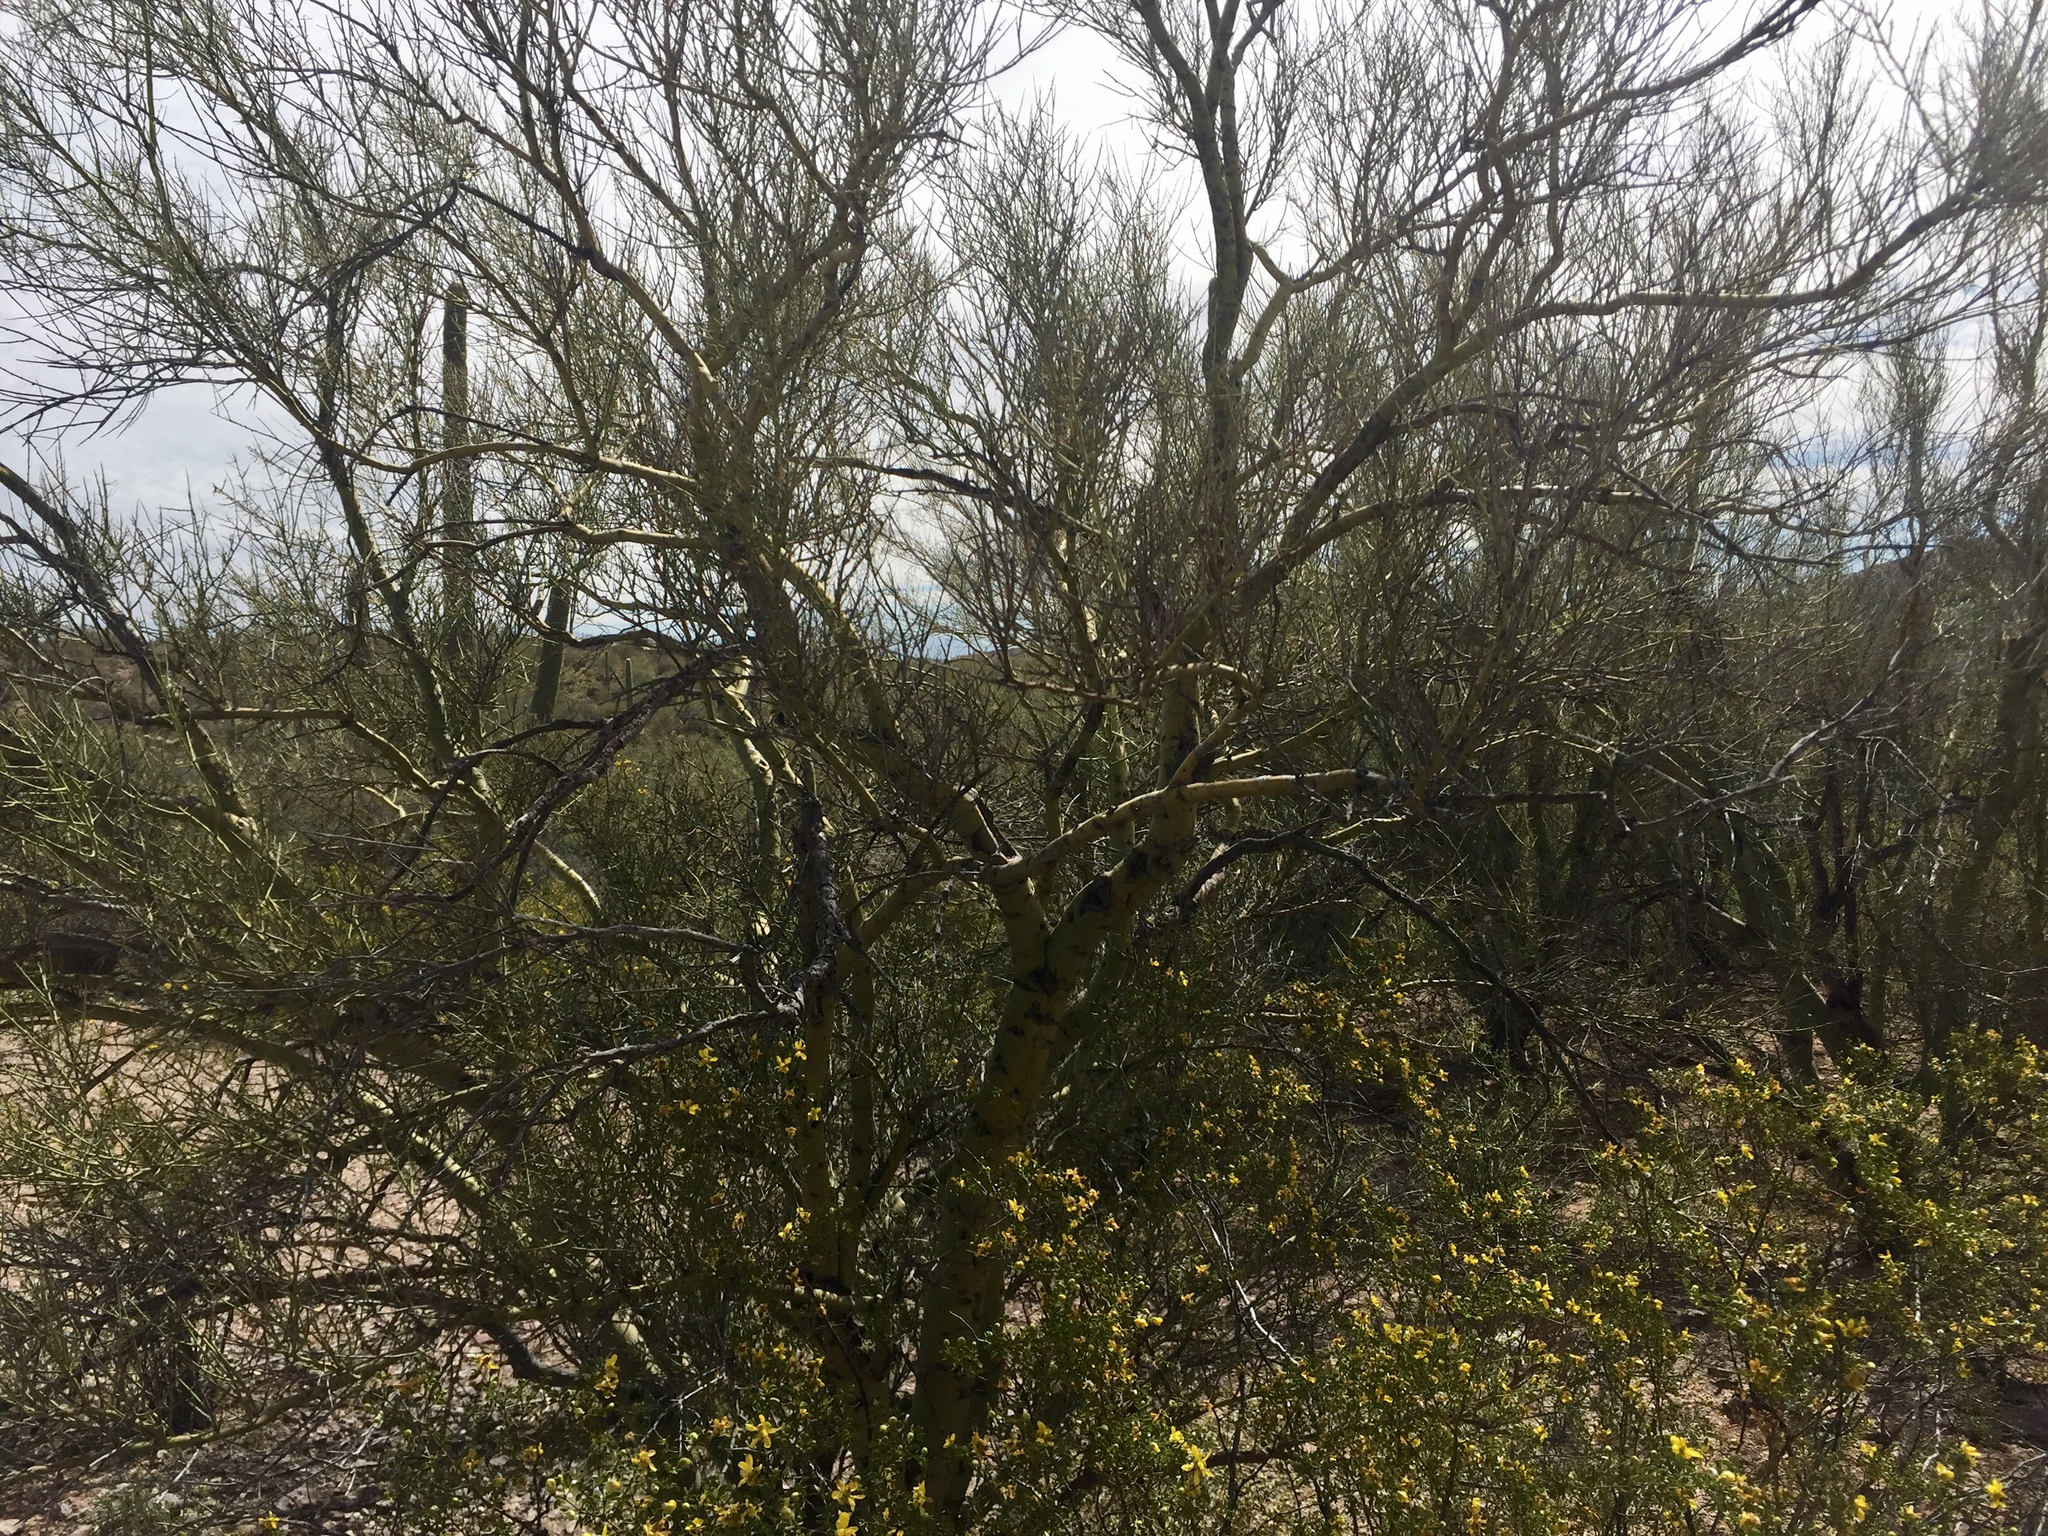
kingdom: Plantae
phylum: Tracheophyta
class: Magnoliopsida
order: Fabales
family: Fabaceae
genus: Parkinsonia
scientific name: Parkinsonia microphylla
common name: Yellow paloverde
